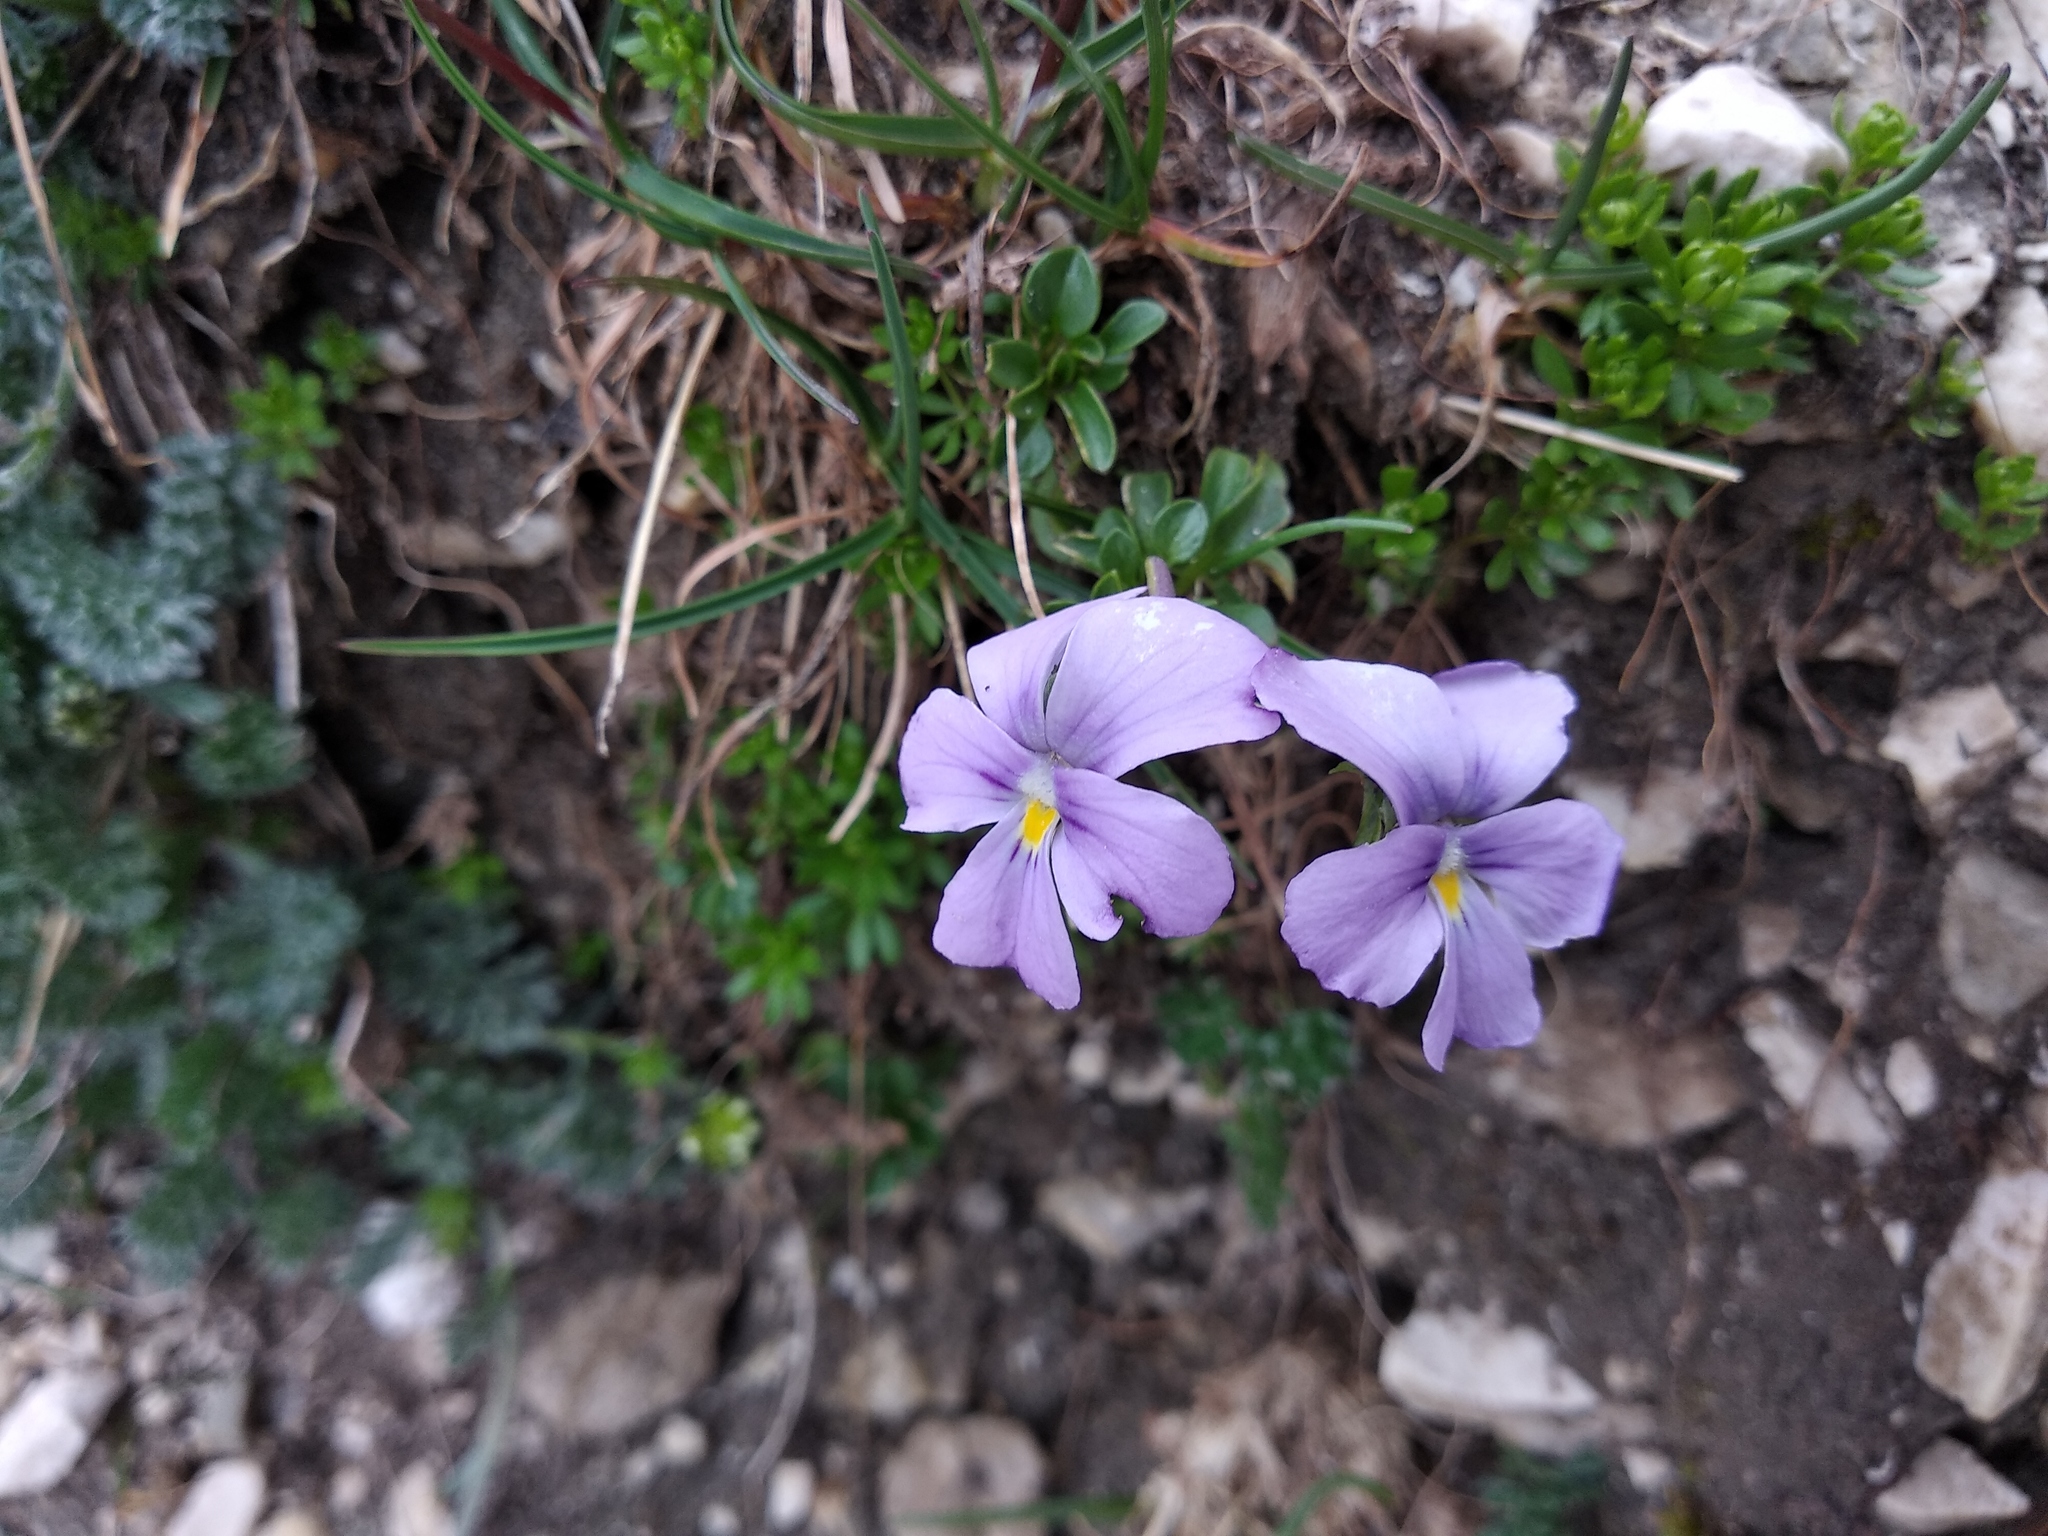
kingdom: Plantae
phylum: Tracheophyta
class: Magnoliopsida
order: Malpighiales
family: Violaceae
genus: Viola
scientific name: Viola magellensis
